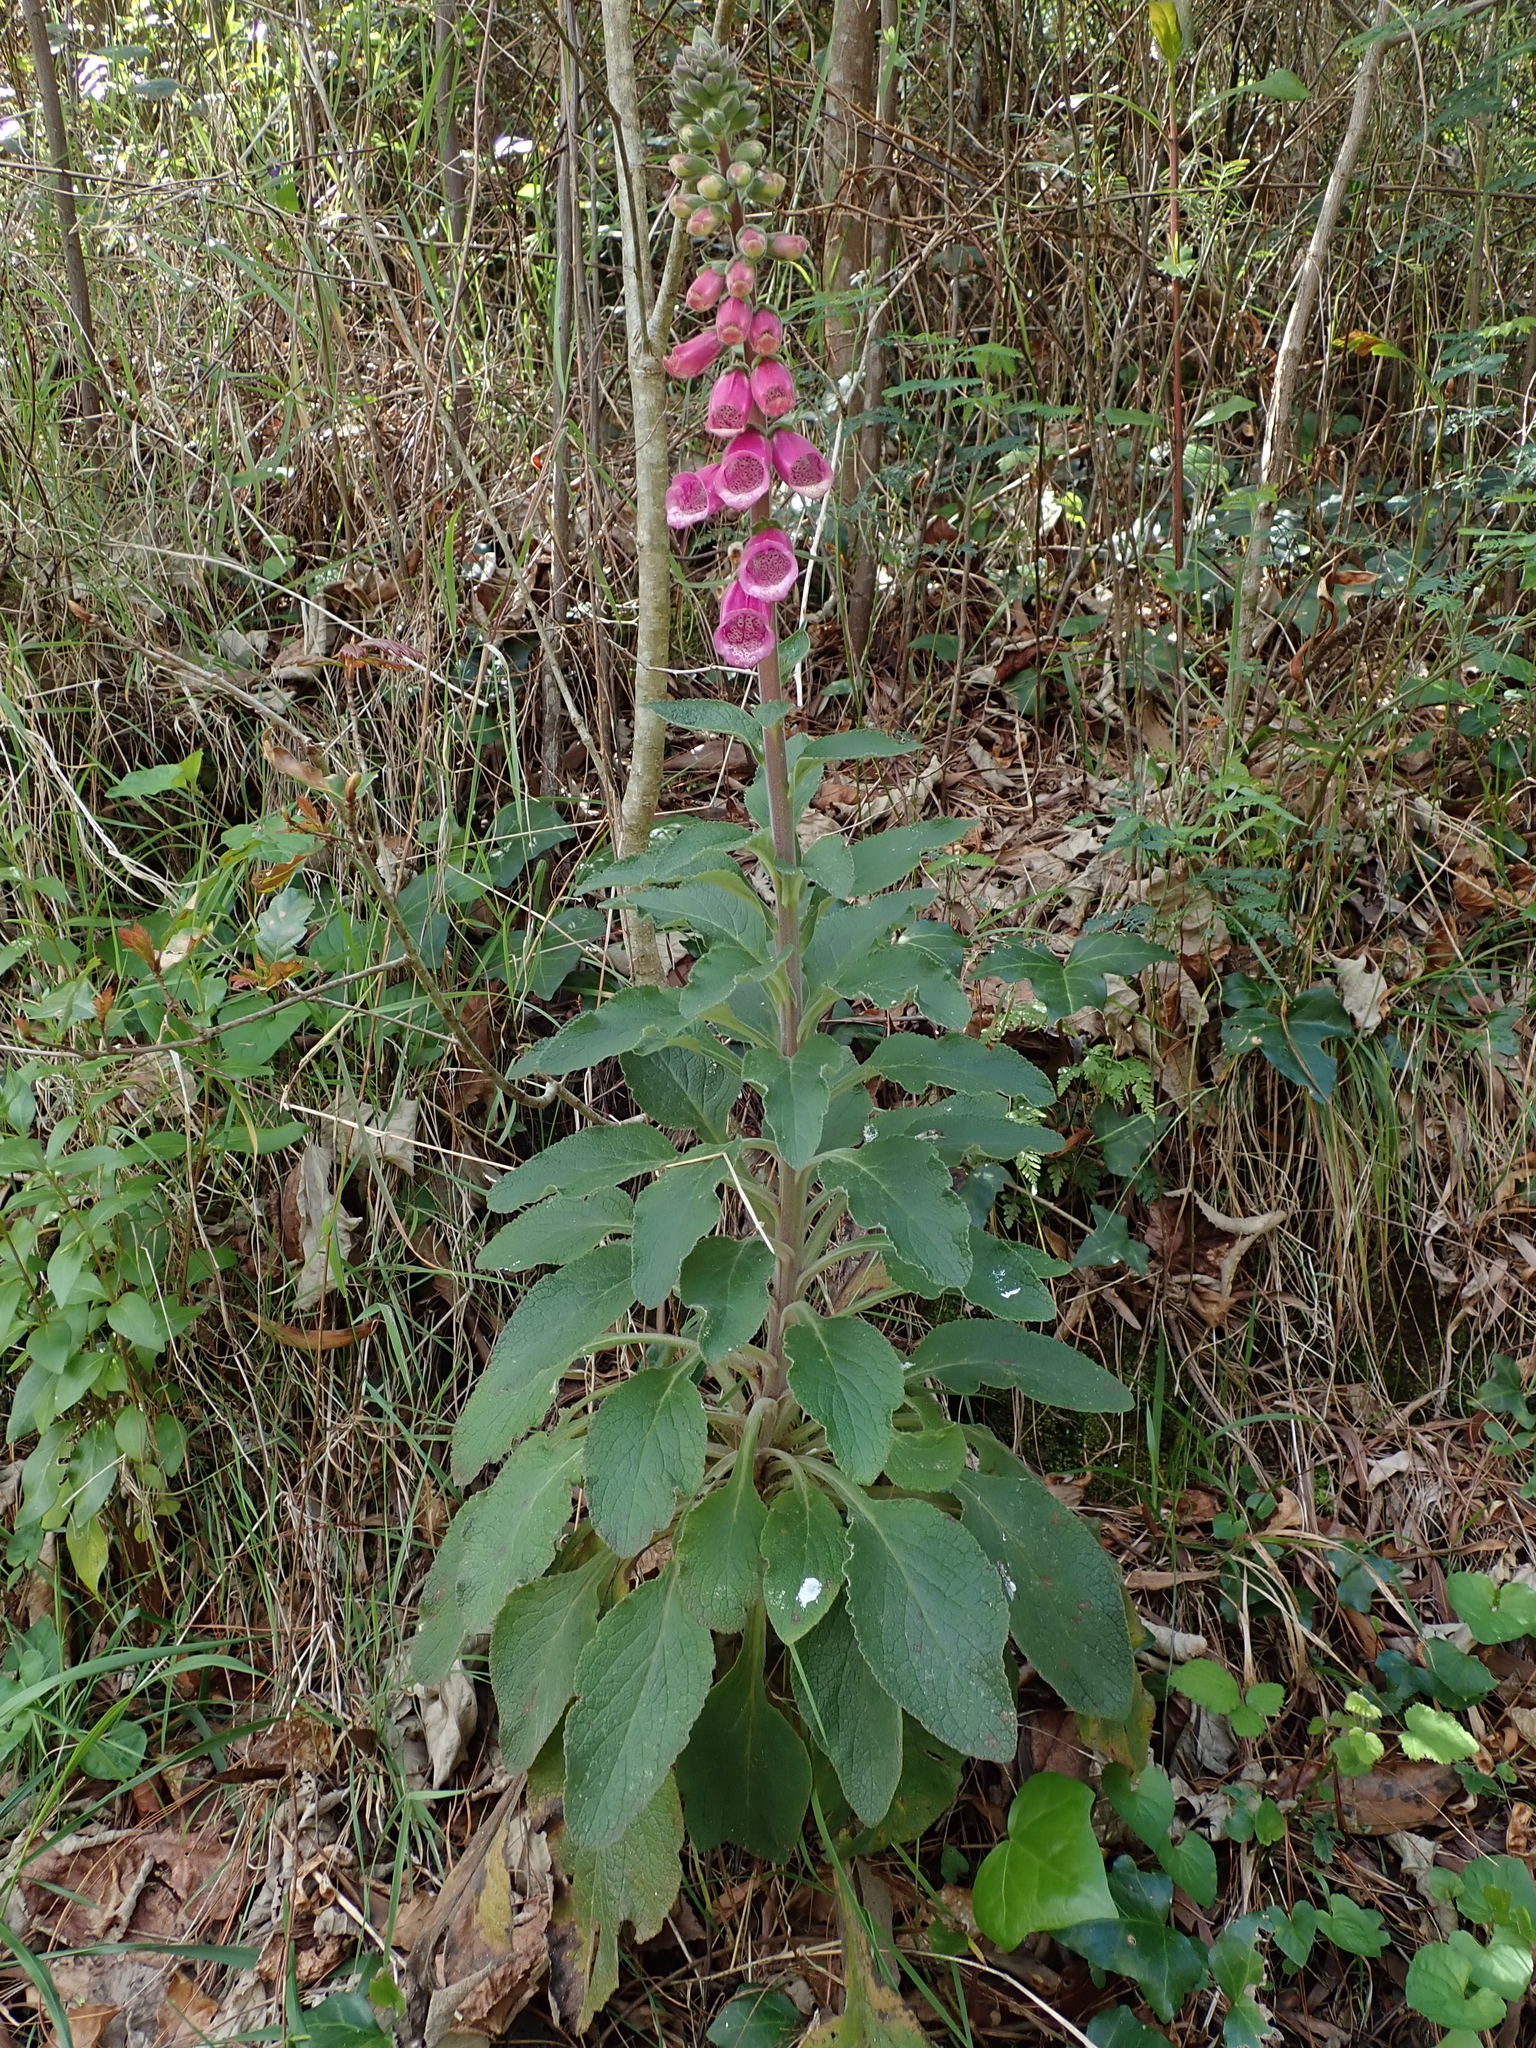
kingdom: Plantae
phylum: Tracheophyta
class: Magnoliopsida
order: Lamiales
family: Plantaginaceae
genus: Digitalis
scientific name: Digitalis purpurea
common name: Foxglove
